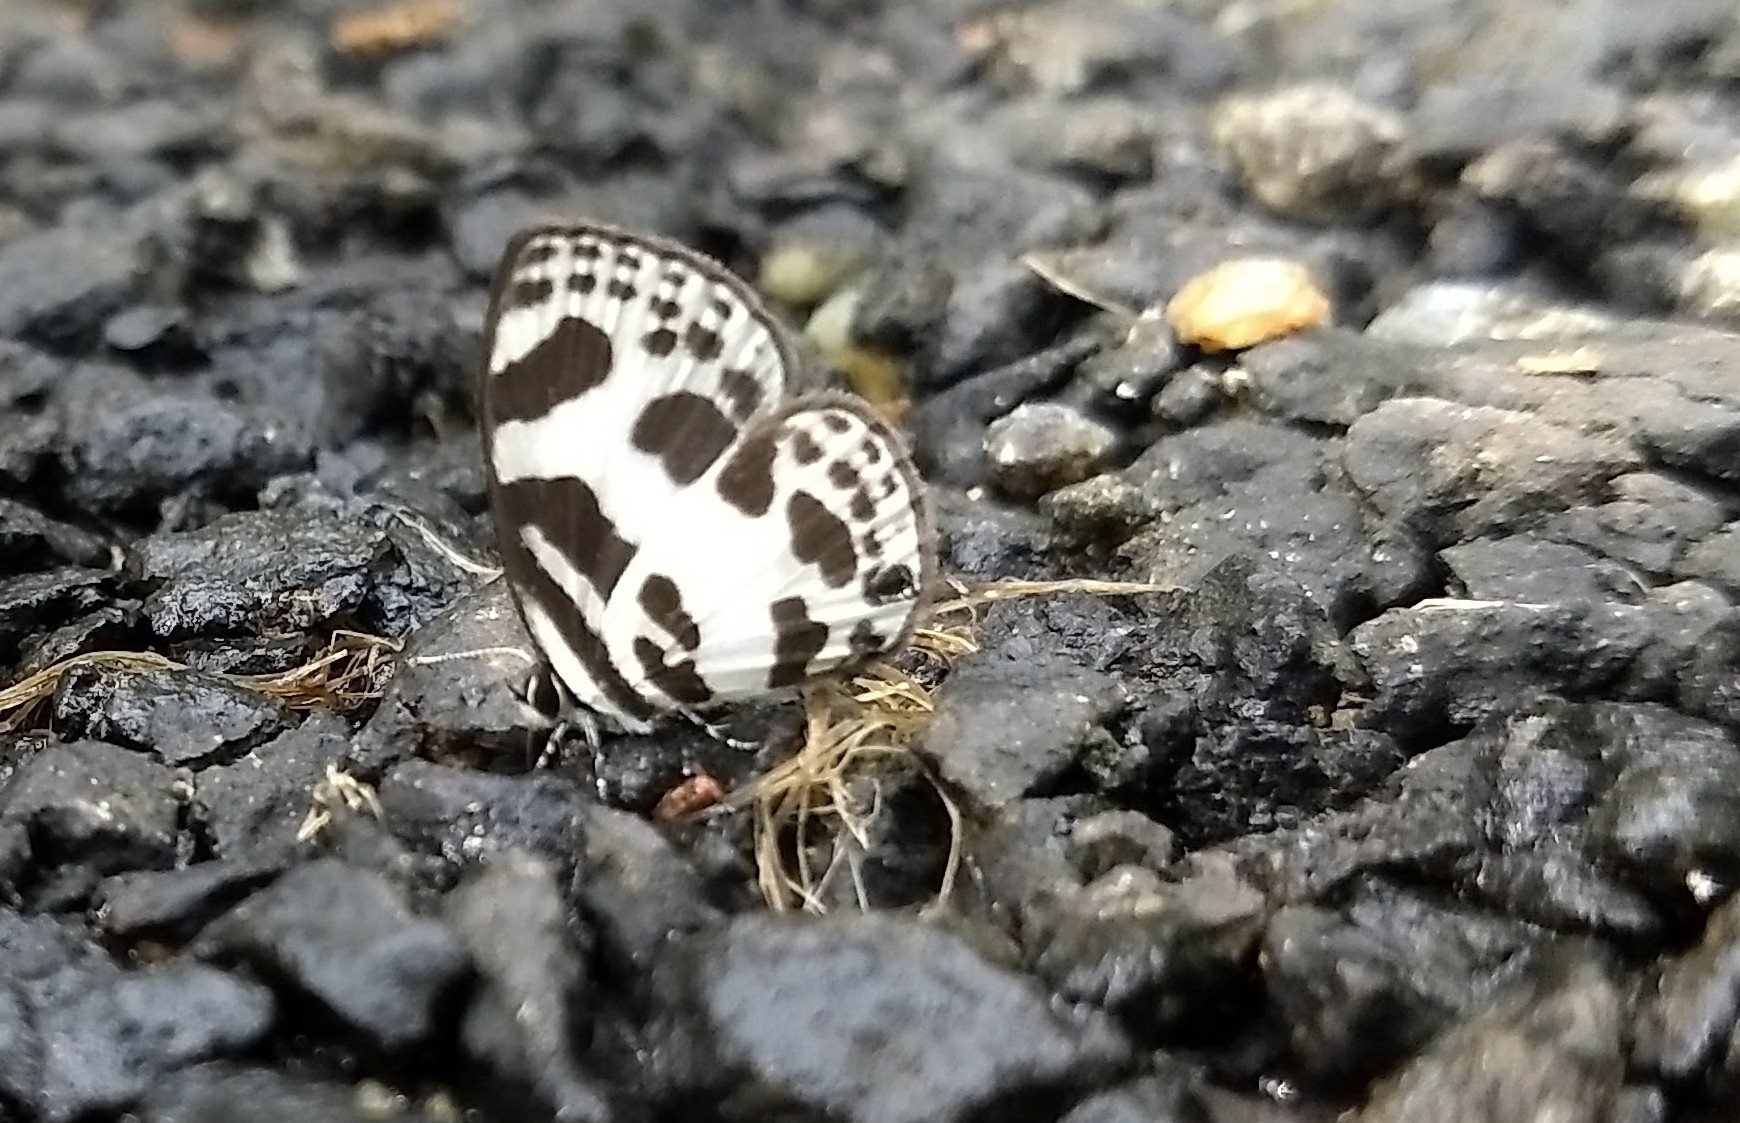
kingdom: Animalia
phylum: Arthropoda
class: Insecta
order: Lepidoptera
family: Lycaenidae
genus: Discolampa
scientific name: Discolampa ethion
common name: Banded blue pierrot
